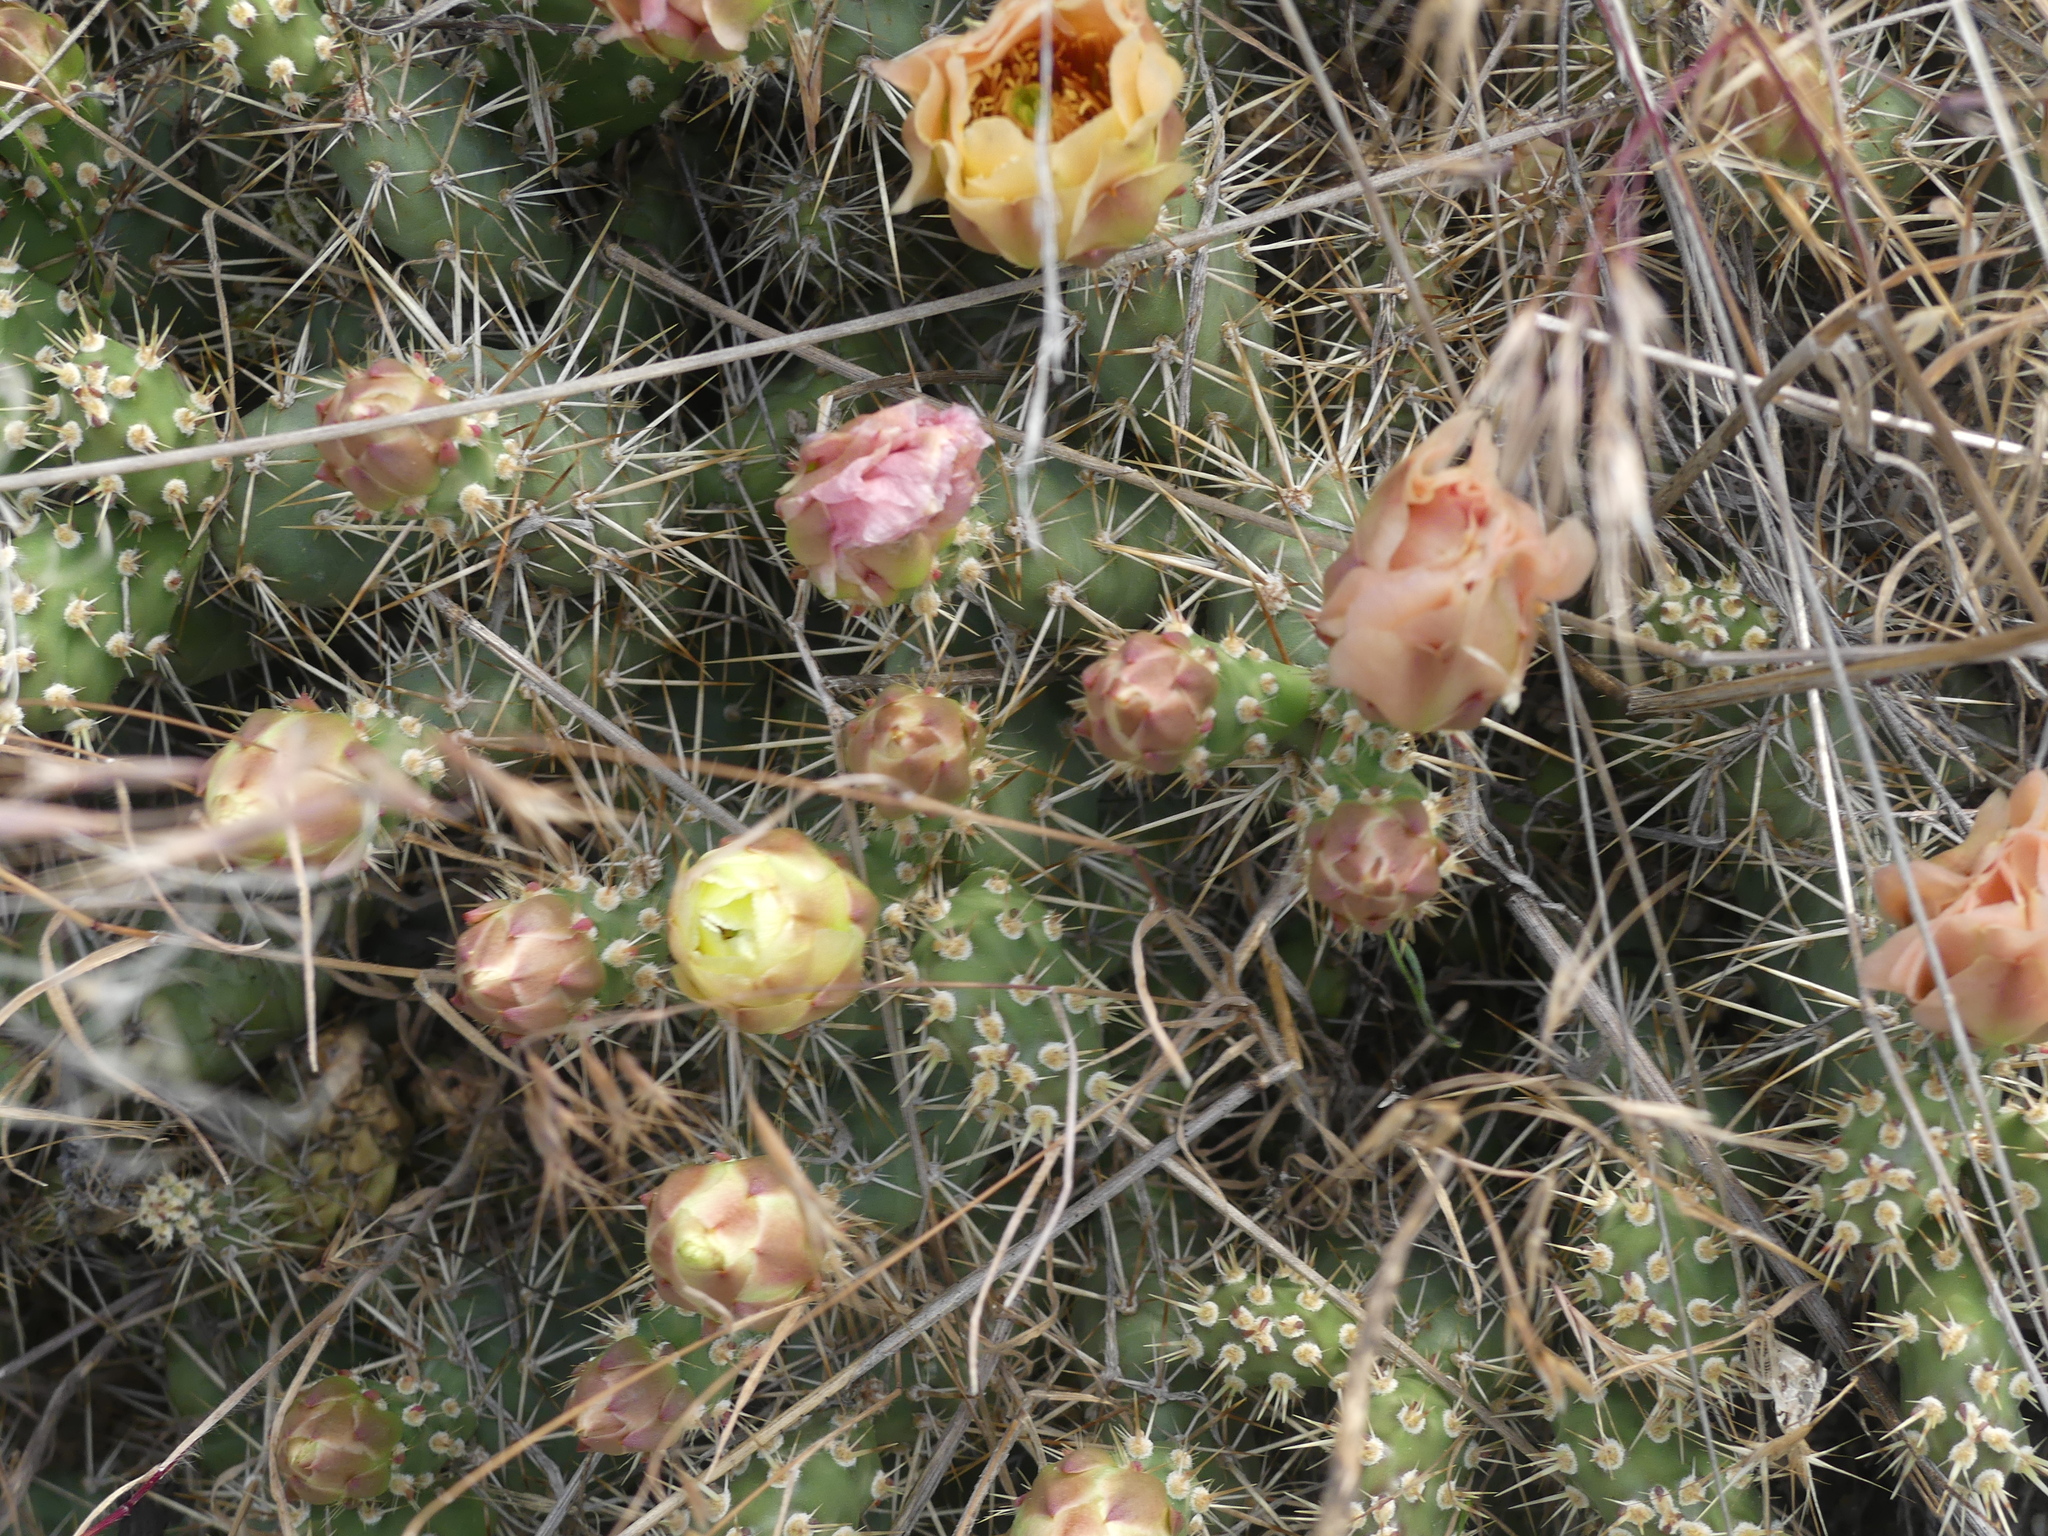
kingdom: Plantae
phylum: Tracheophyta
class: Magnoliopsida
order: Caryophyllales
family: Cactaceae
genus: Opuntia
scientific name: Opuntia fragilis
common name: Brittle cactus
